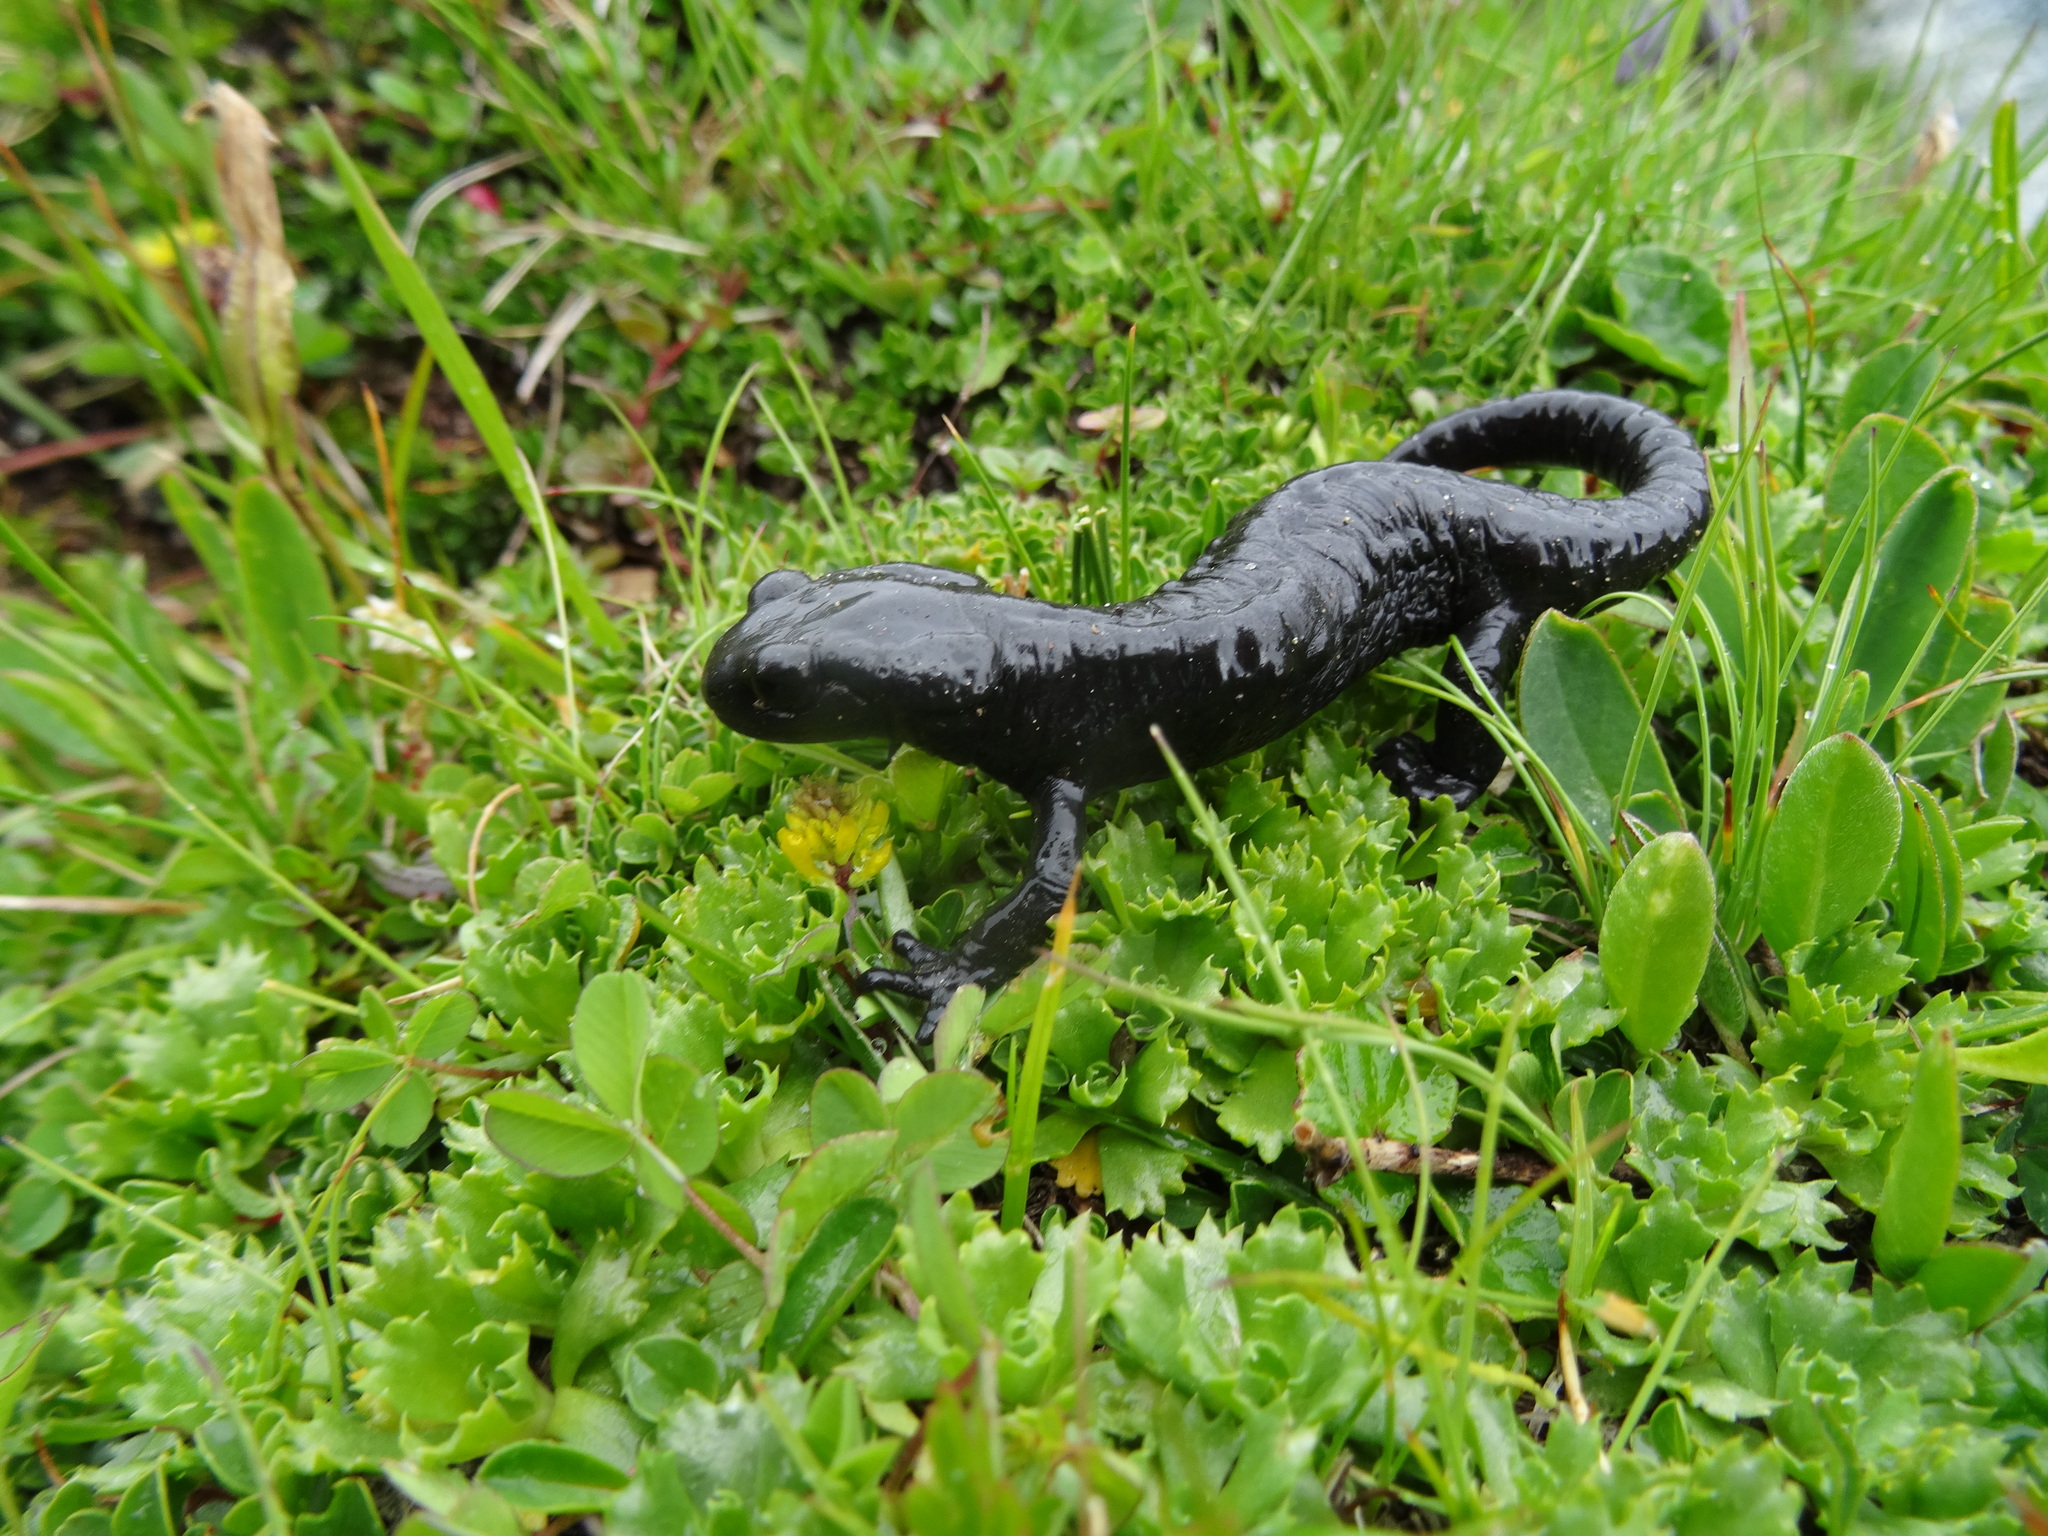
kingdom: Animalia
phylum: Chordata
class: Amphibia
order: Caudata
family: Salamandridae
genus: Salamandra
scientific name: Salamandra atra
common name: Alpine salamander
